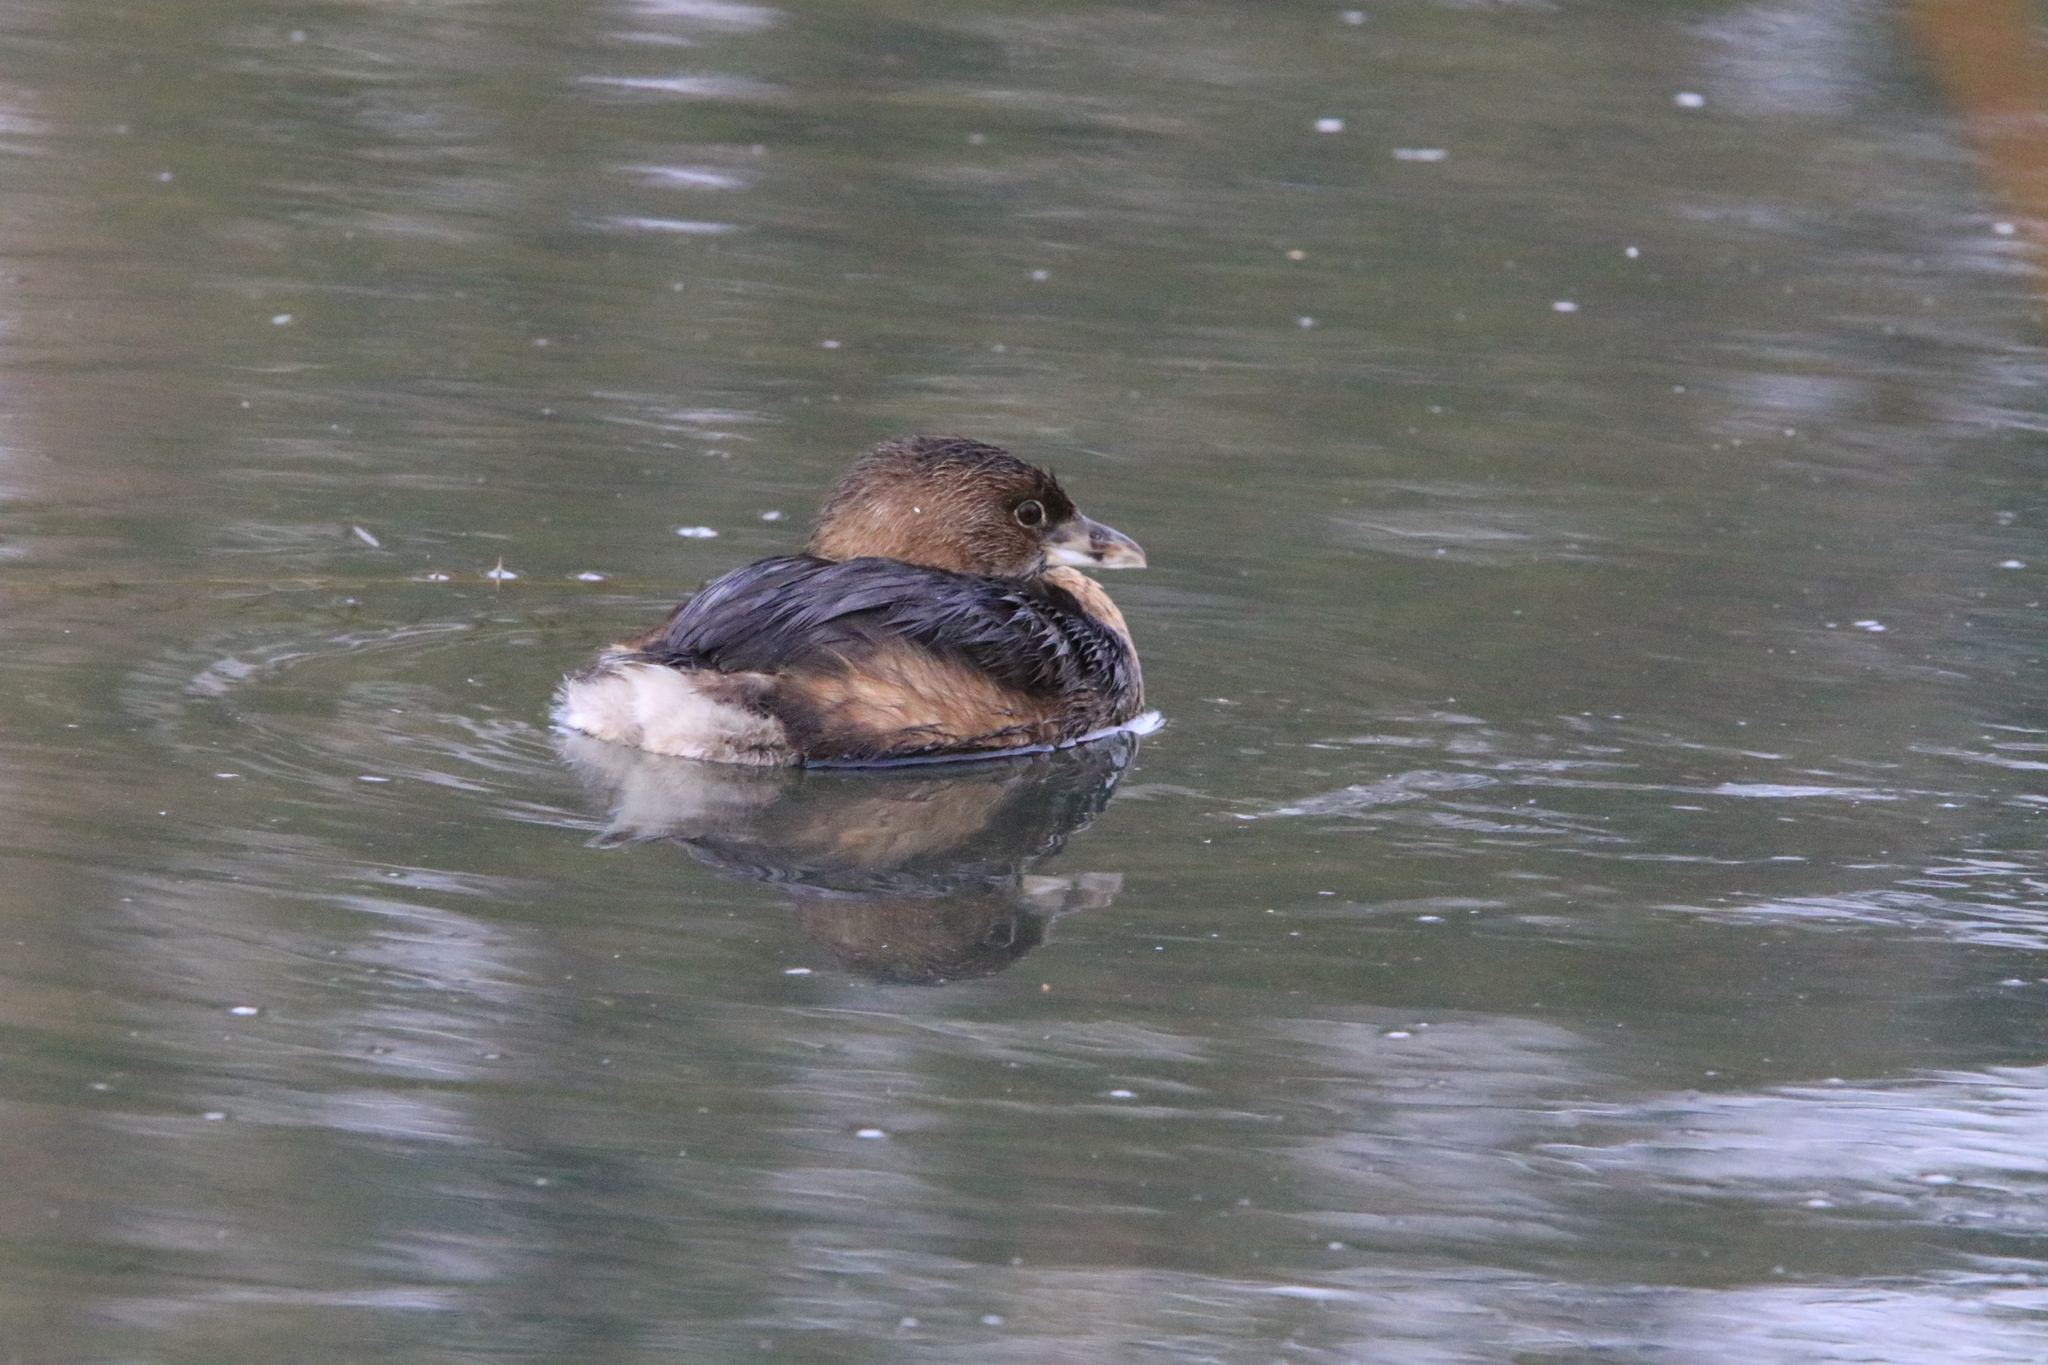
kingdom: Animalia
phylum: Chordata
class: Aves
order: Podicipediformes
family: Podicipedidae
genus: Podilymbus
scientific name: Podilymbus podiceps
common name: Pied-billed grebe
